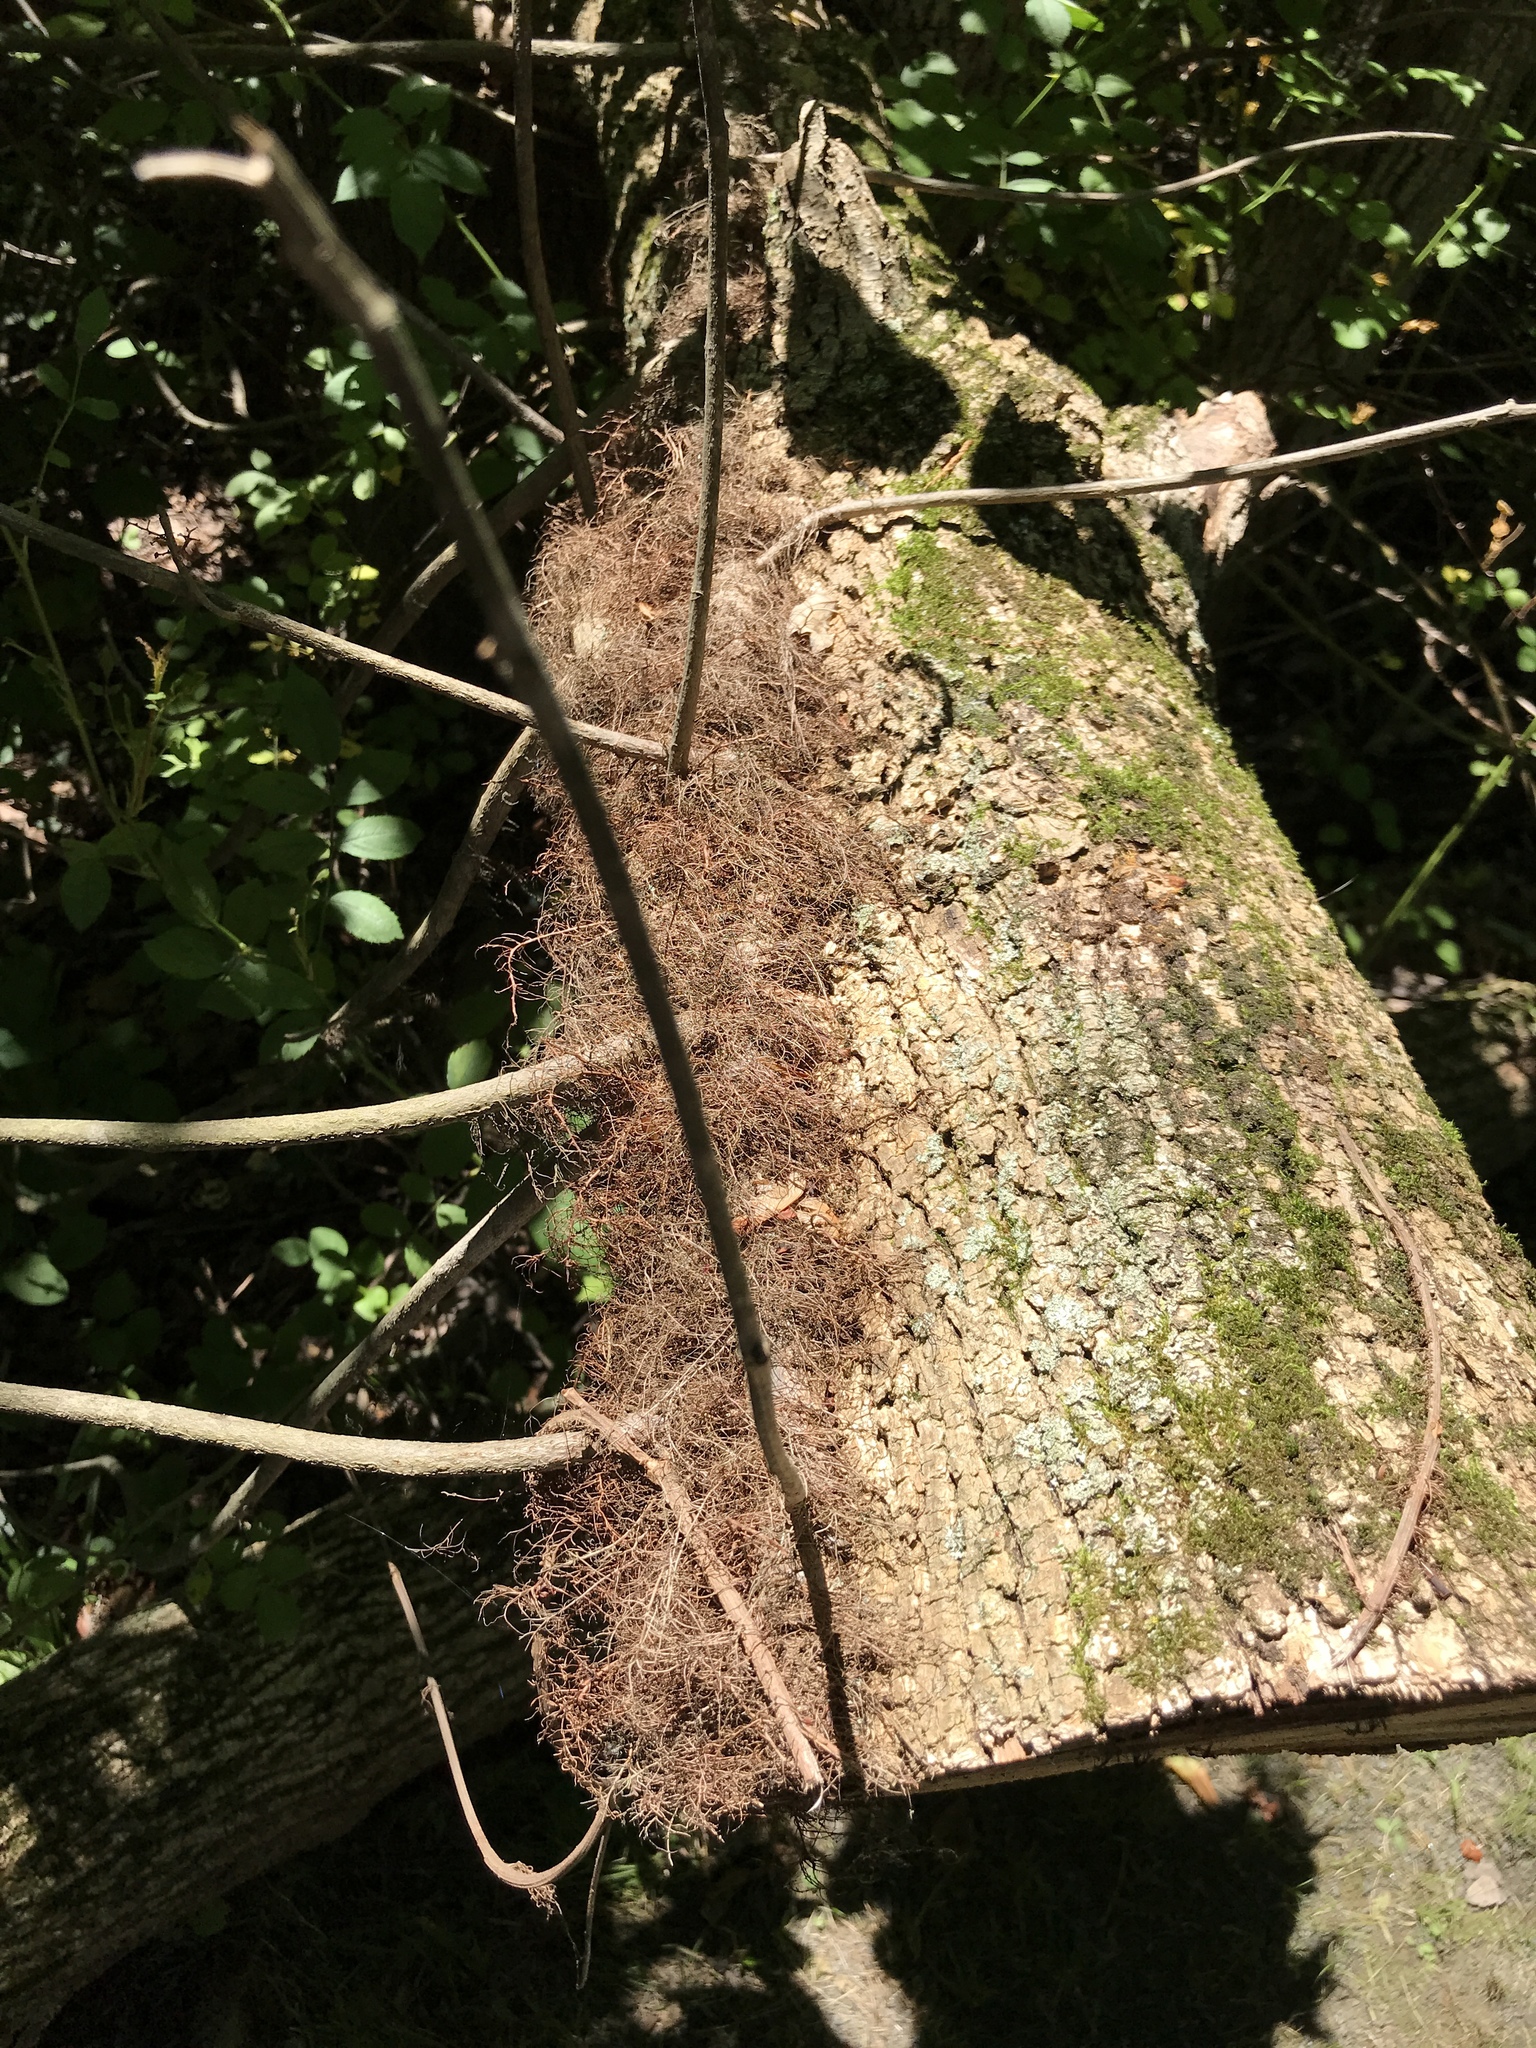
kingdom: Plantae
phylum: Tracheophyta
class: Magnoliopsida
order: Sapindales
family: Anacardiaceae
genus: Toxicodendron
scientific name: Toxicodendron radicans
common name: Poison ivy
